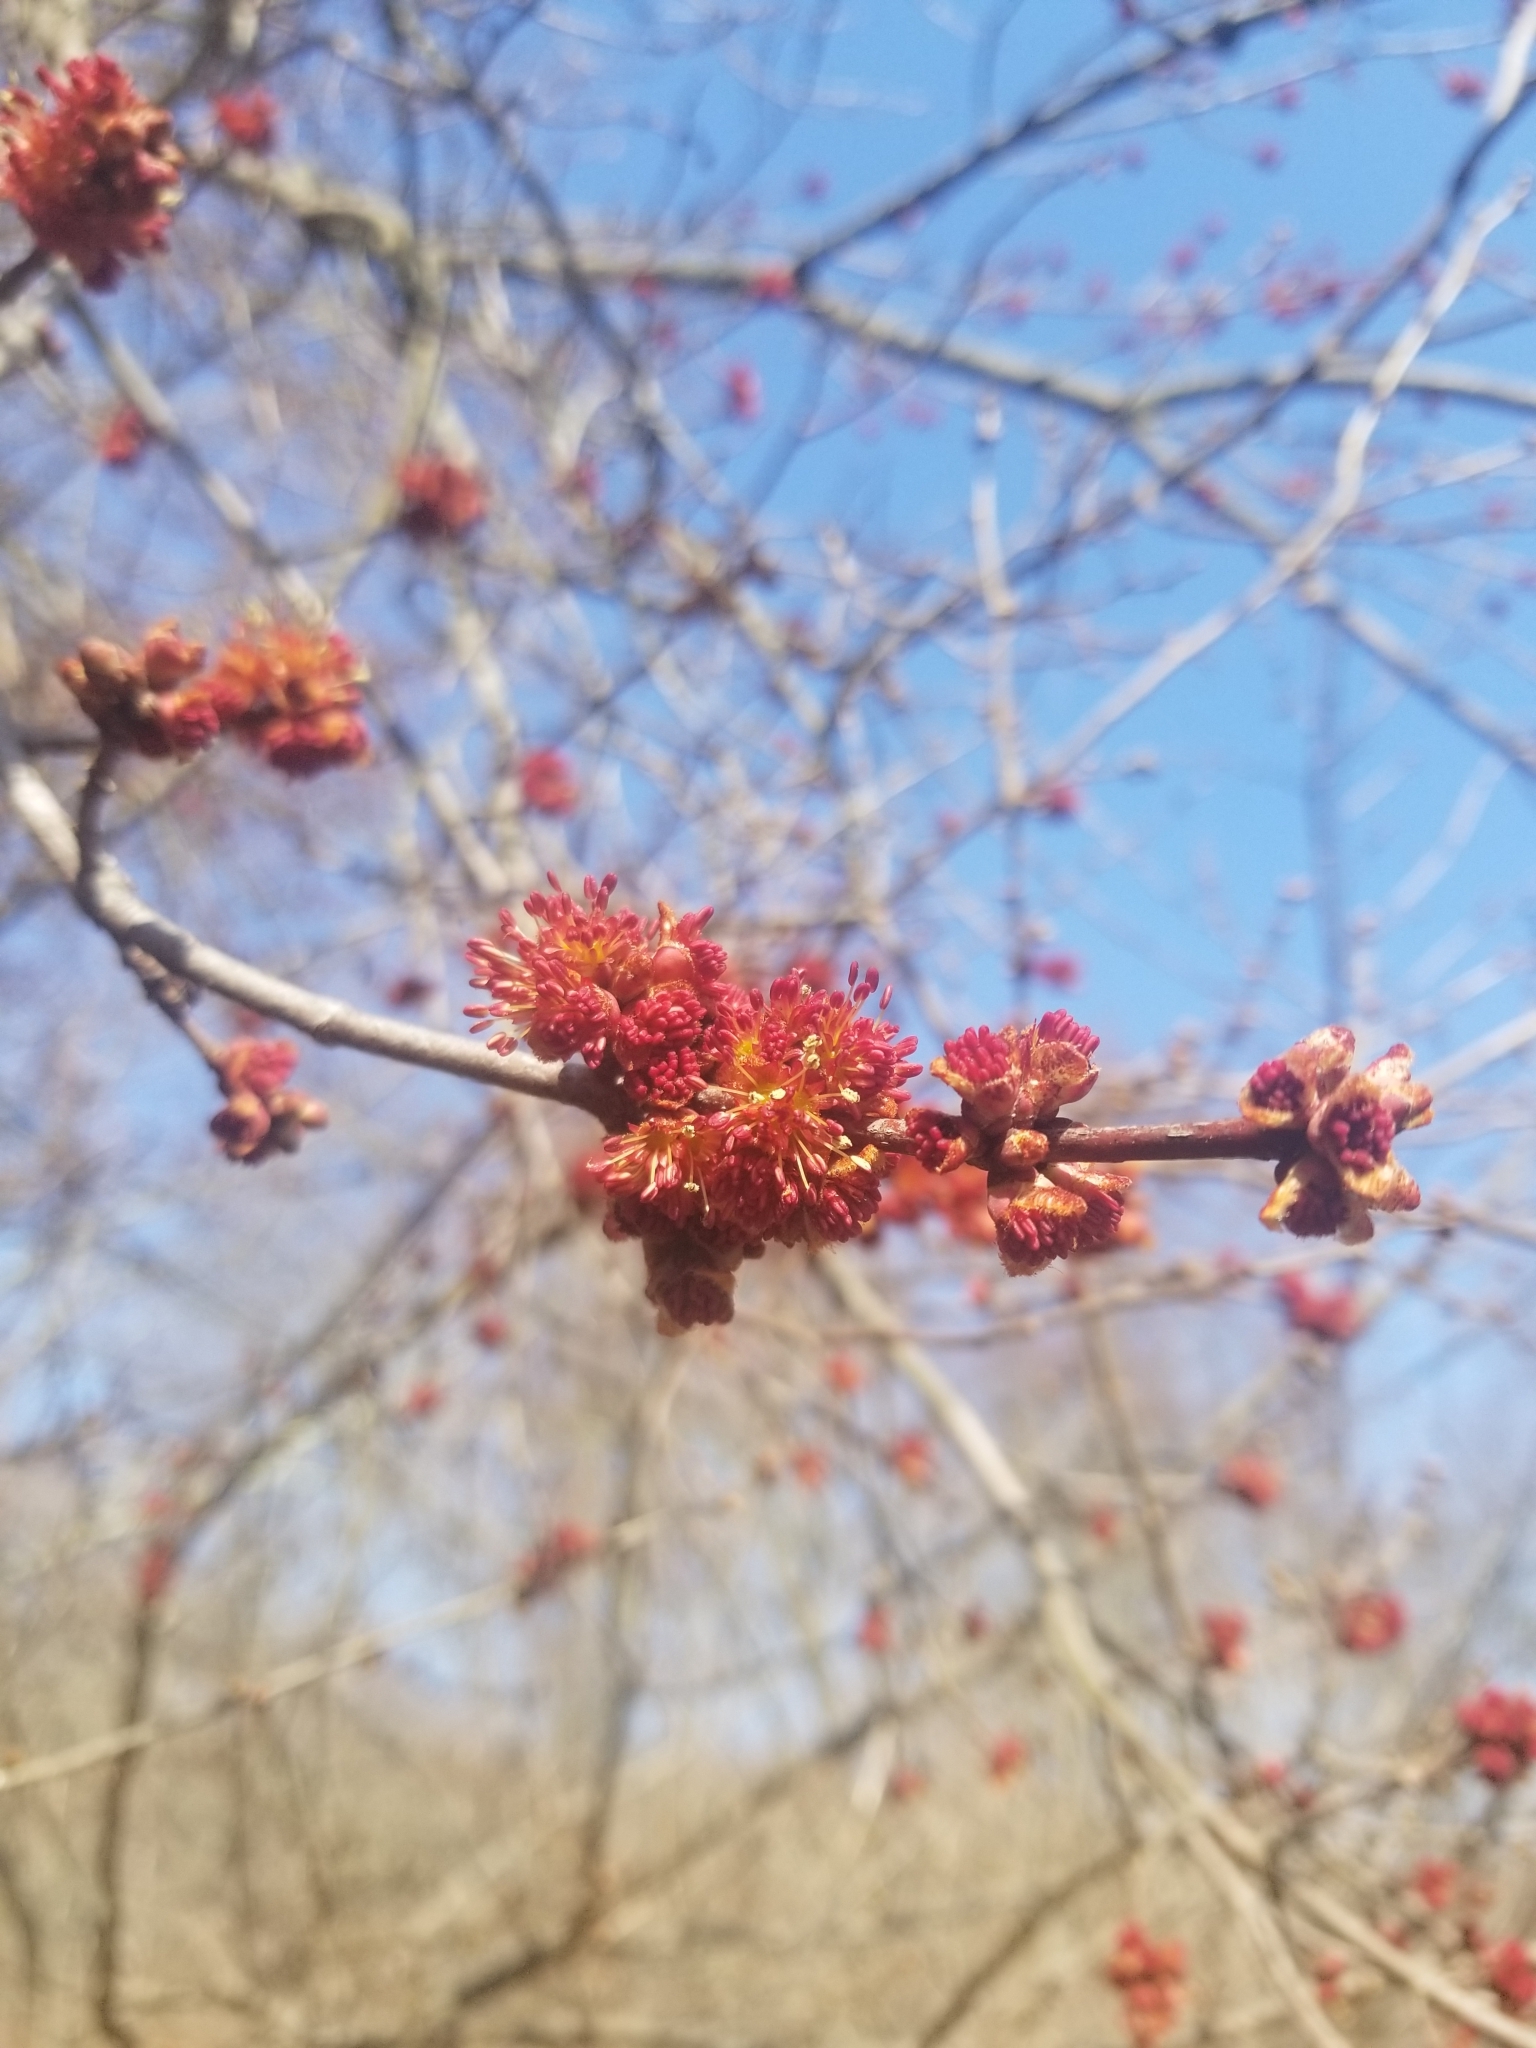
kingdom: Plantae
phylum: Tracheophyta
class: Magnoliopsida
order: Sapindales
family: Sapindaceae
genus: Acer
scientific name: Acer rubrum
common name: Red maple
